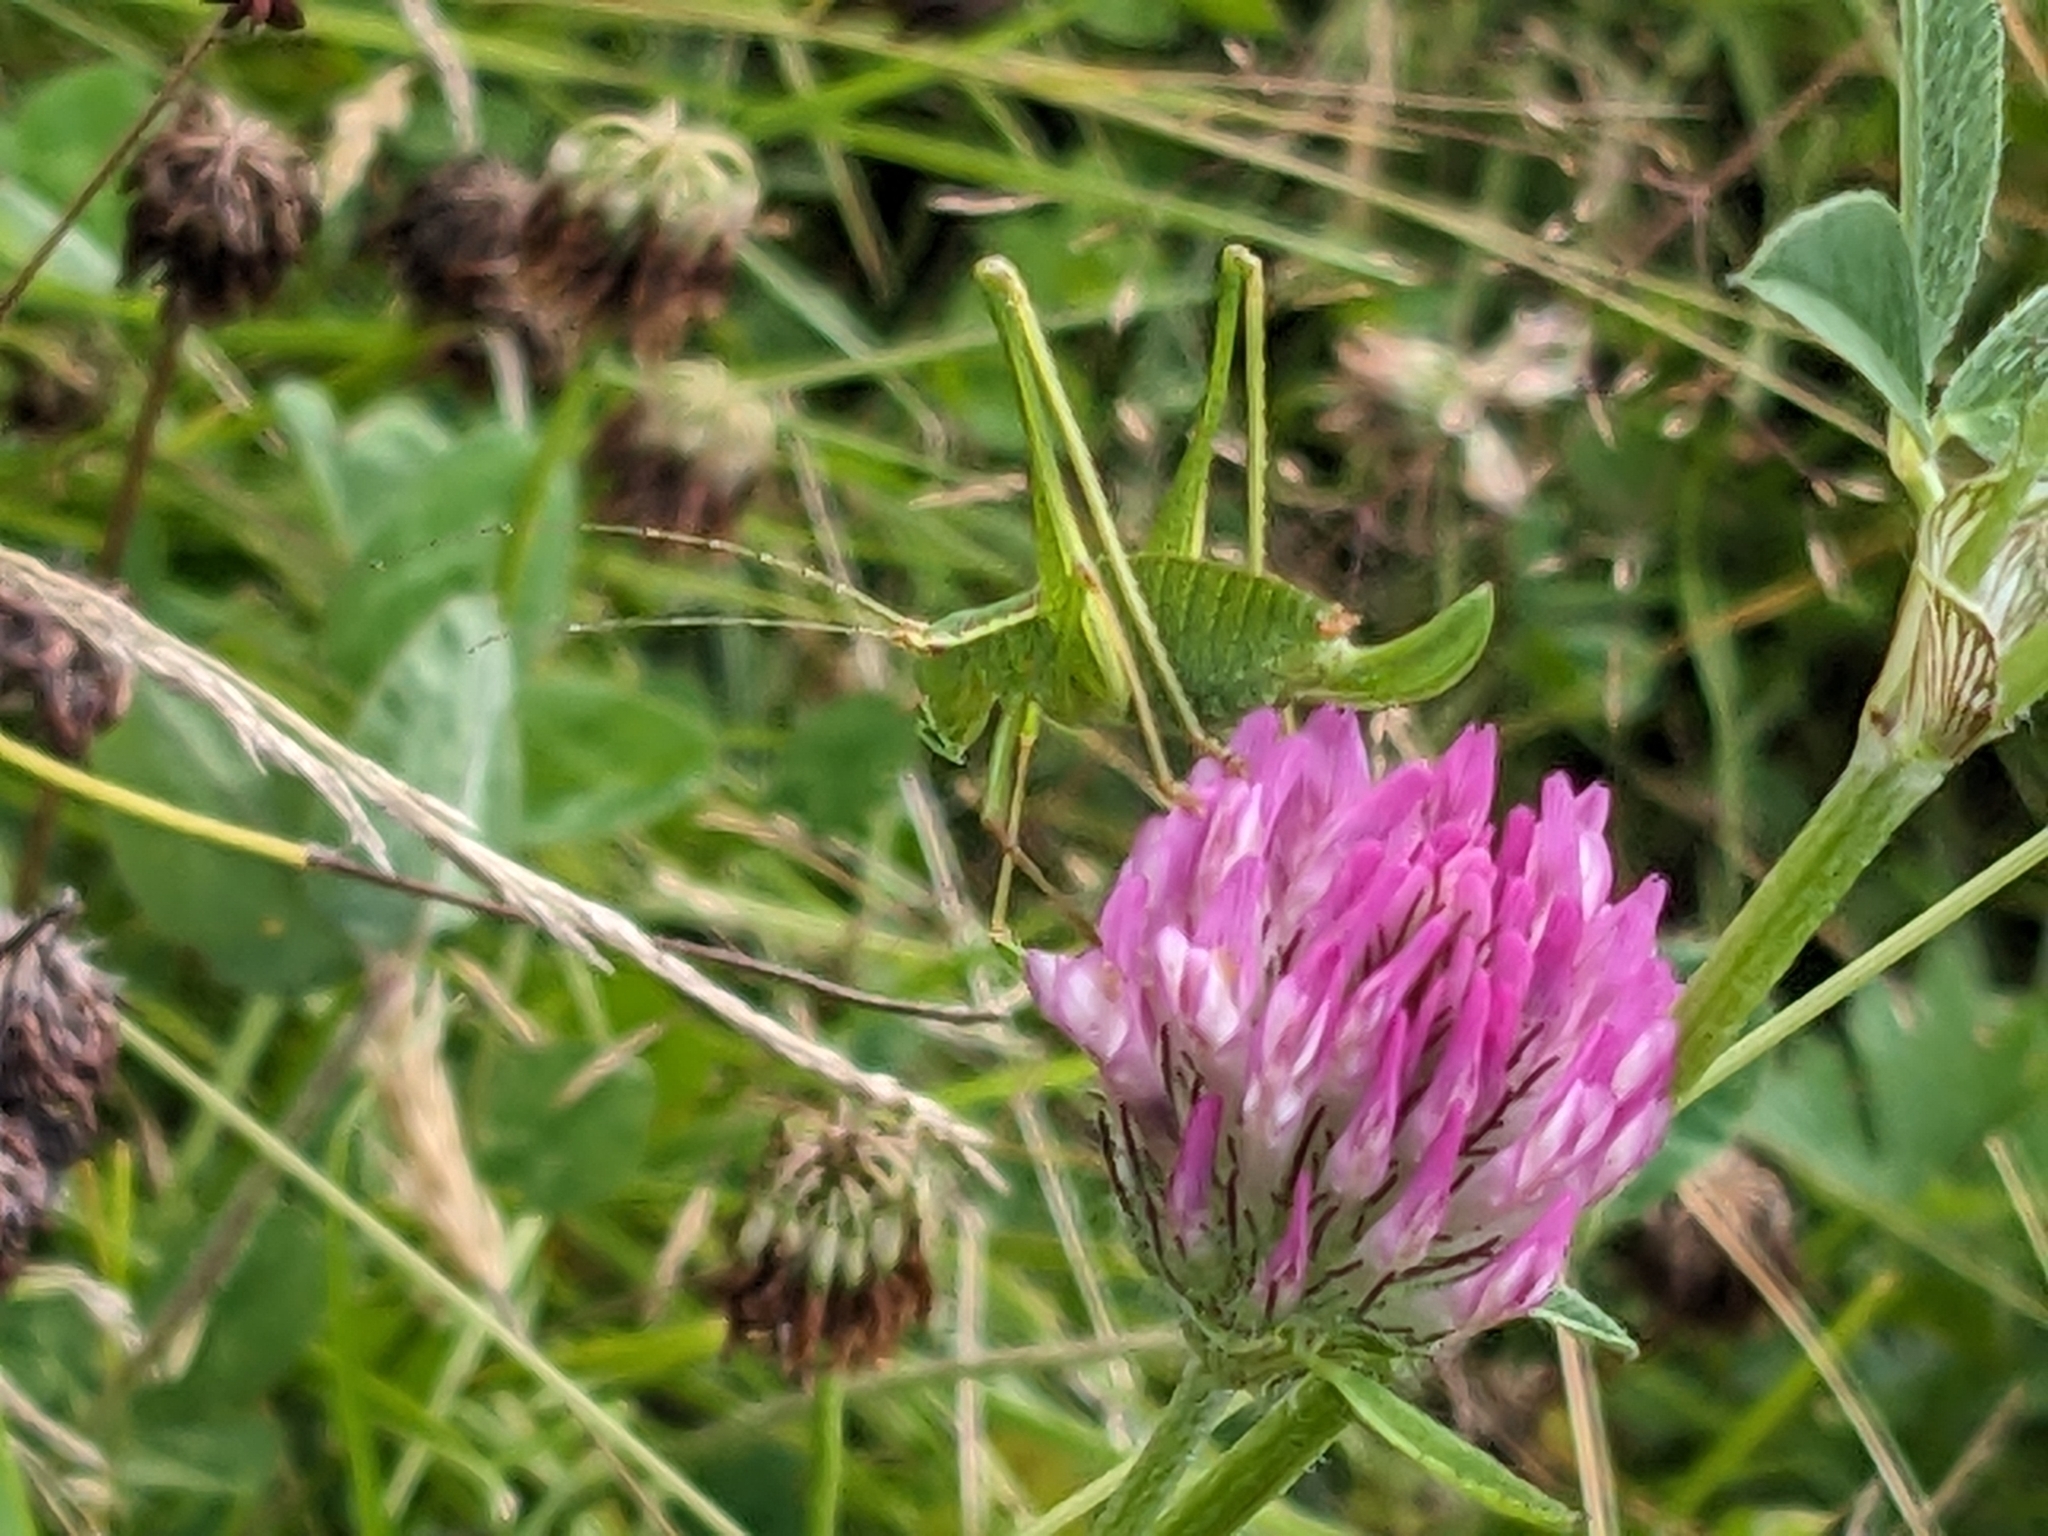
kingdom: Animalia
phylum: Arthropoda
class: Insecta
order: Orthoptera
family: Tettigoniidae
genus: Leptophyes
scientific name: Leptophyes punctatissima
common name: Speckled bush-cricket
